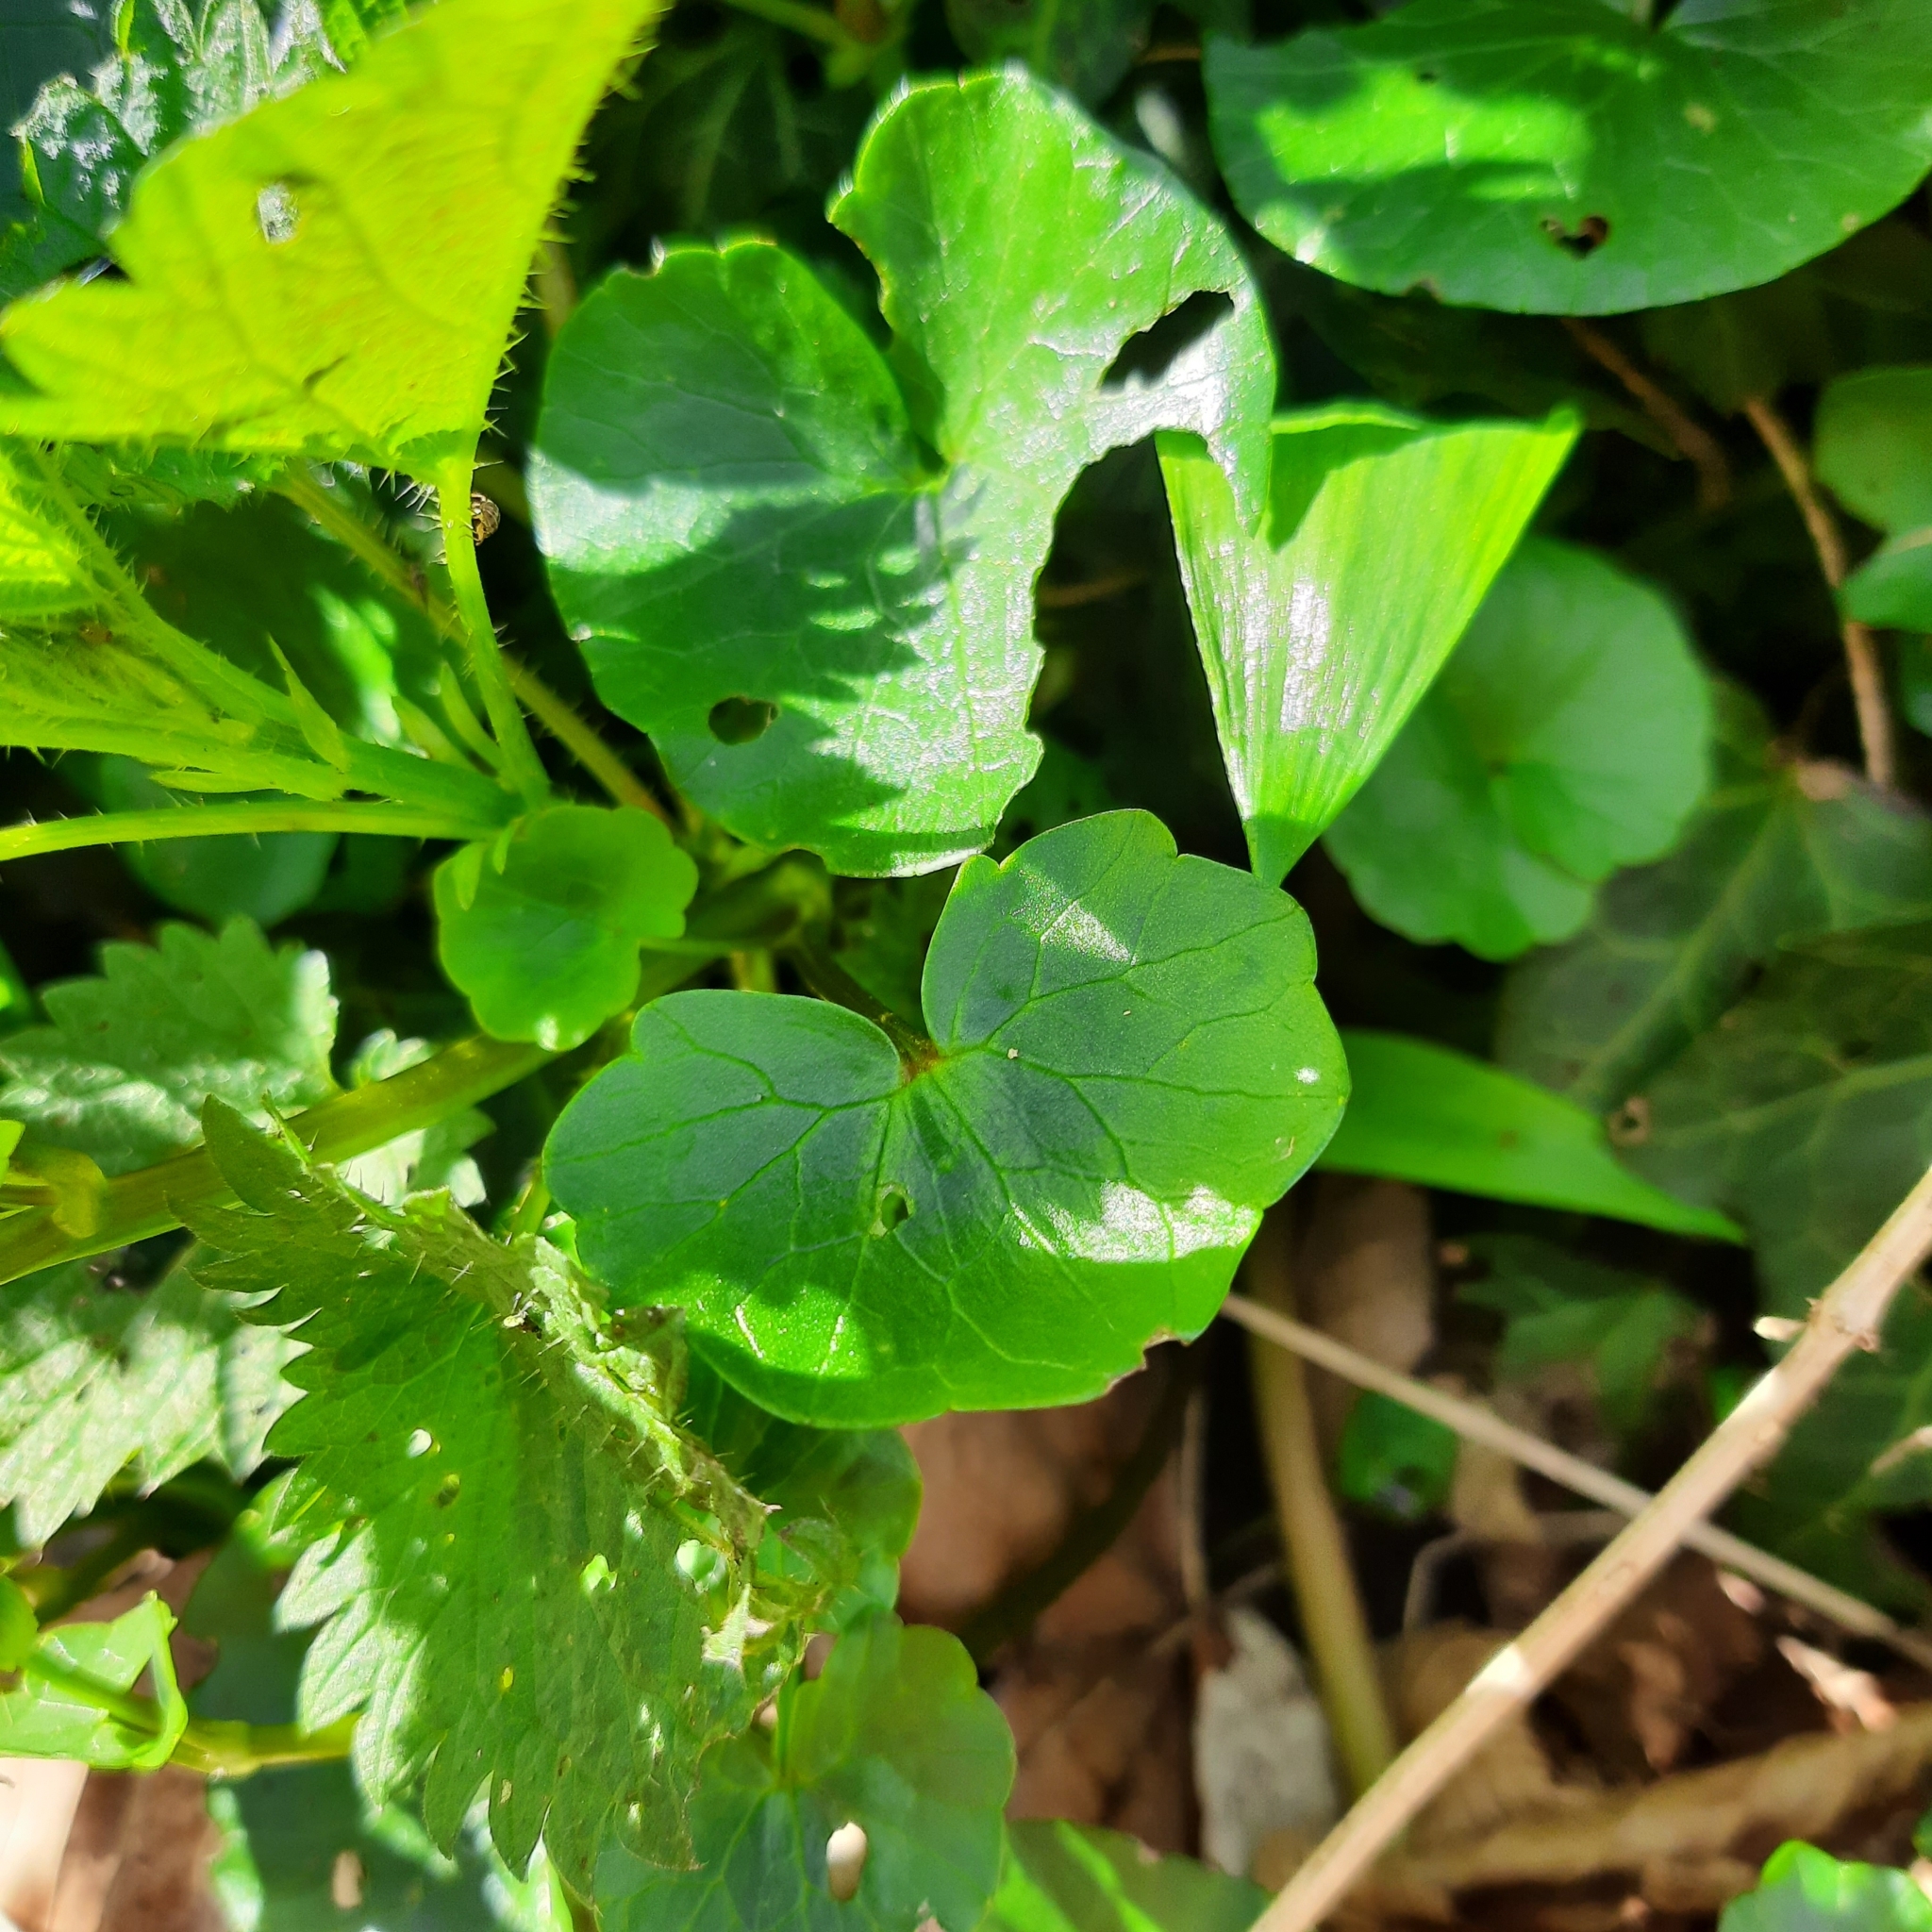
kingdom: Plantae
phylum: Tracheophyta
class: Magnoliopsida
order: Ranunculales
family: Ranunculaceae
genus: Ficaria
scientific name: Ficaria verna
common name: Lesser celandine
